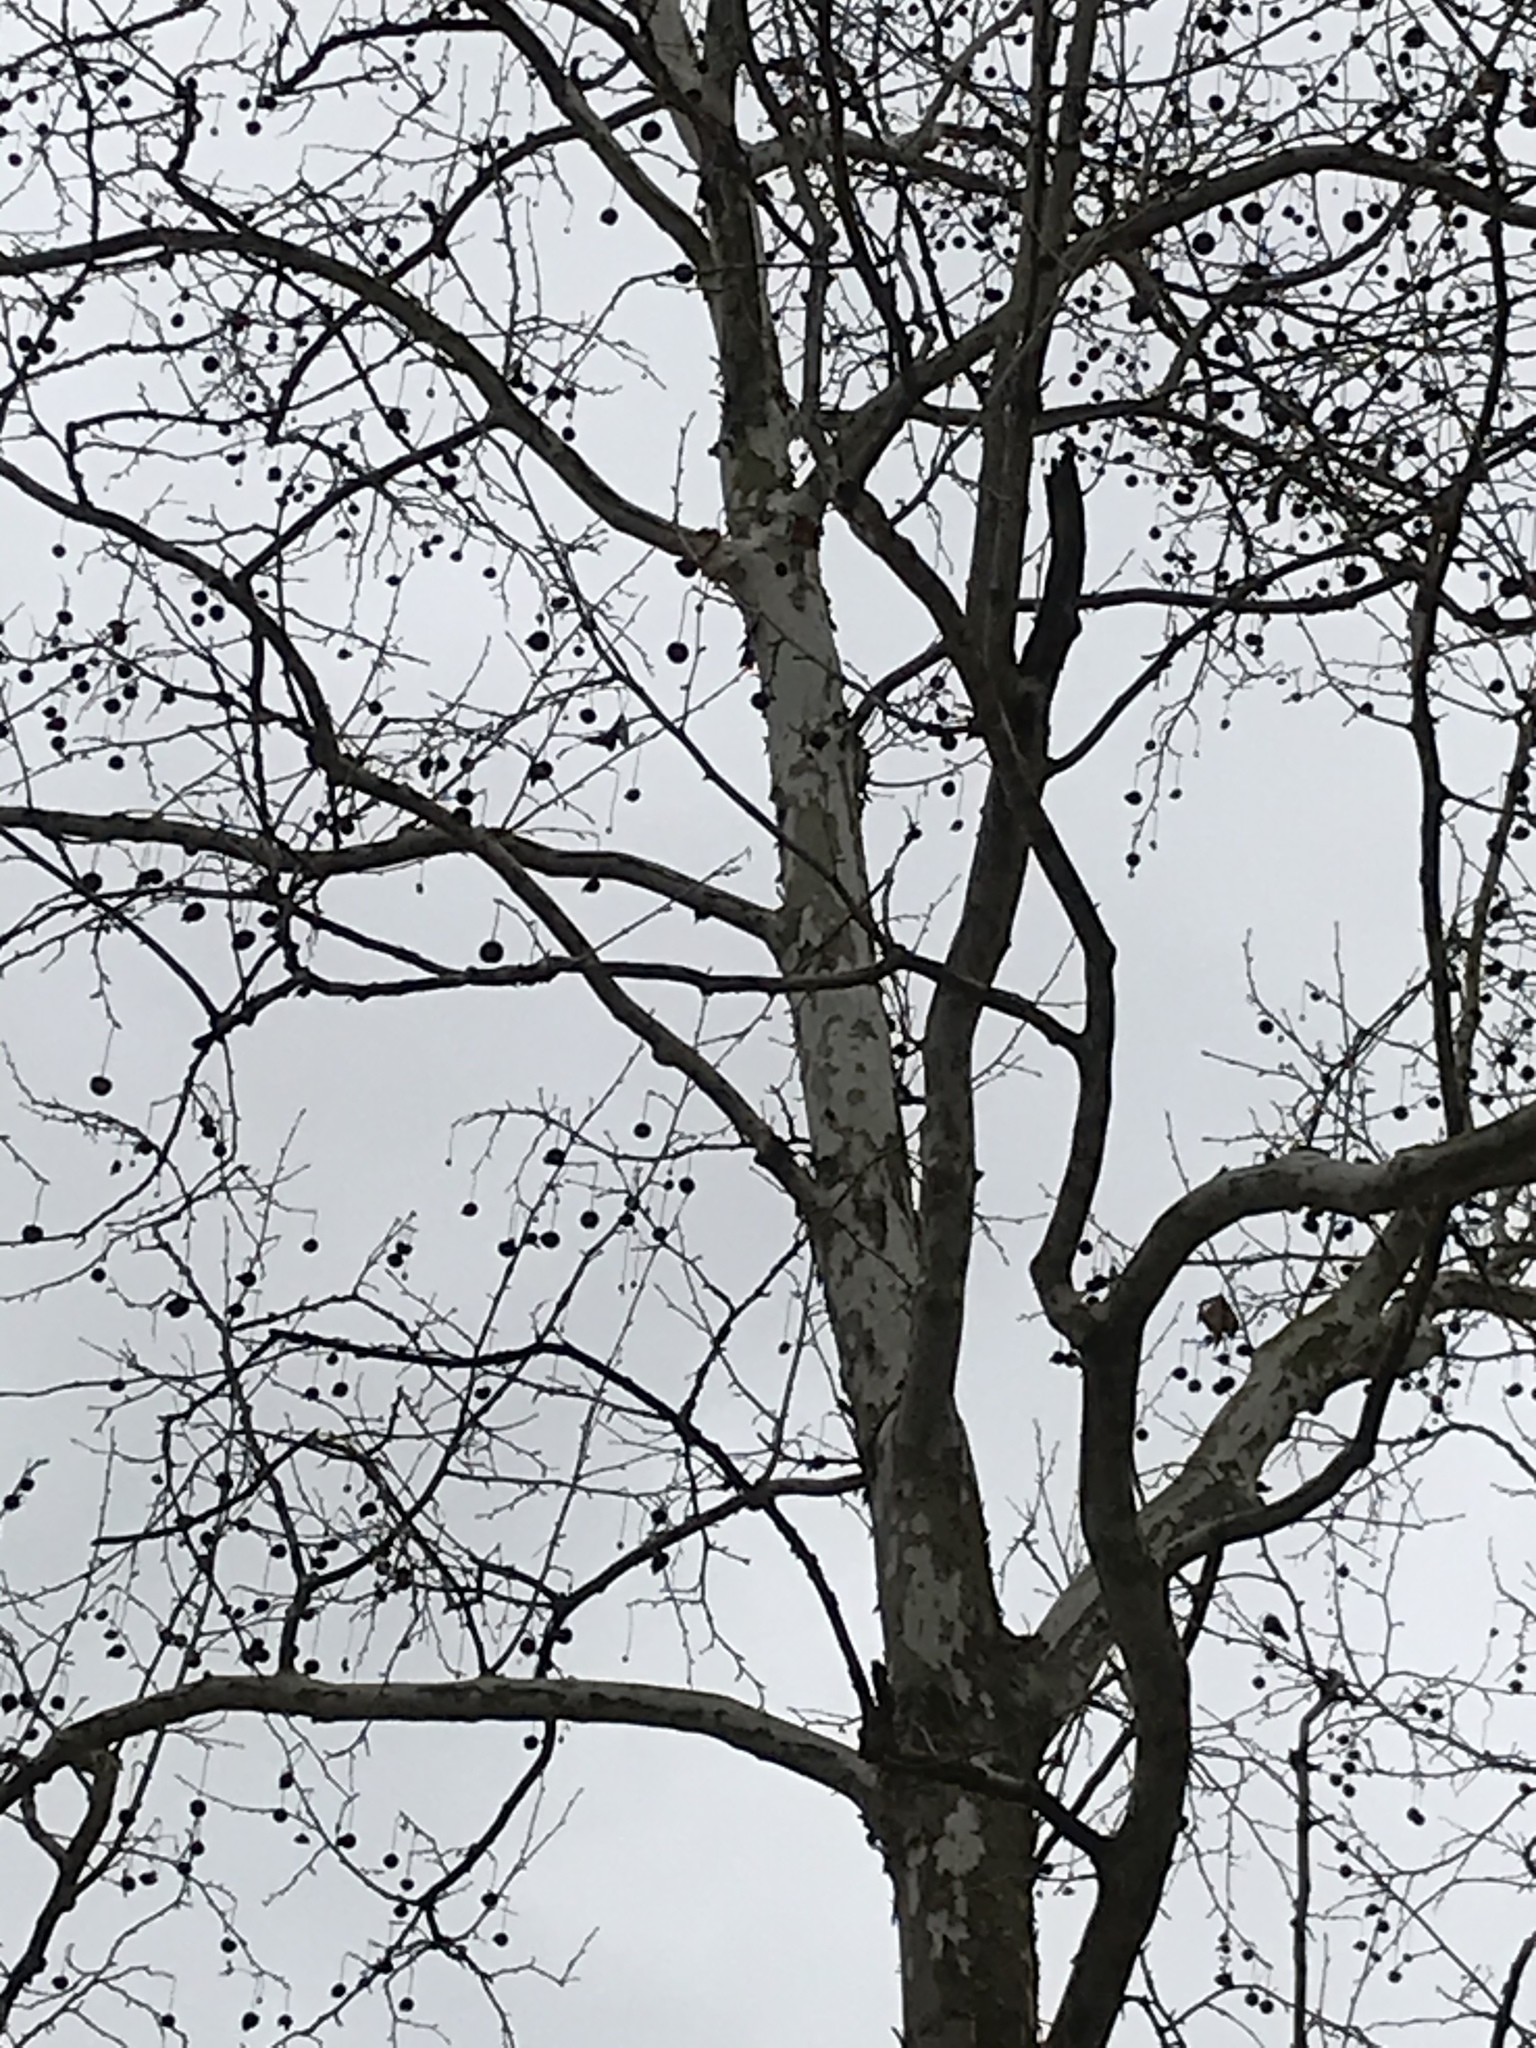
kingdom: Plantae
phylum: Tracheophyta
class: Magnoliopsida
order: Proteales
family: Platanaceae
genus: Platanus
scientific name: Platanus occidentalis
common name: American sycamore
